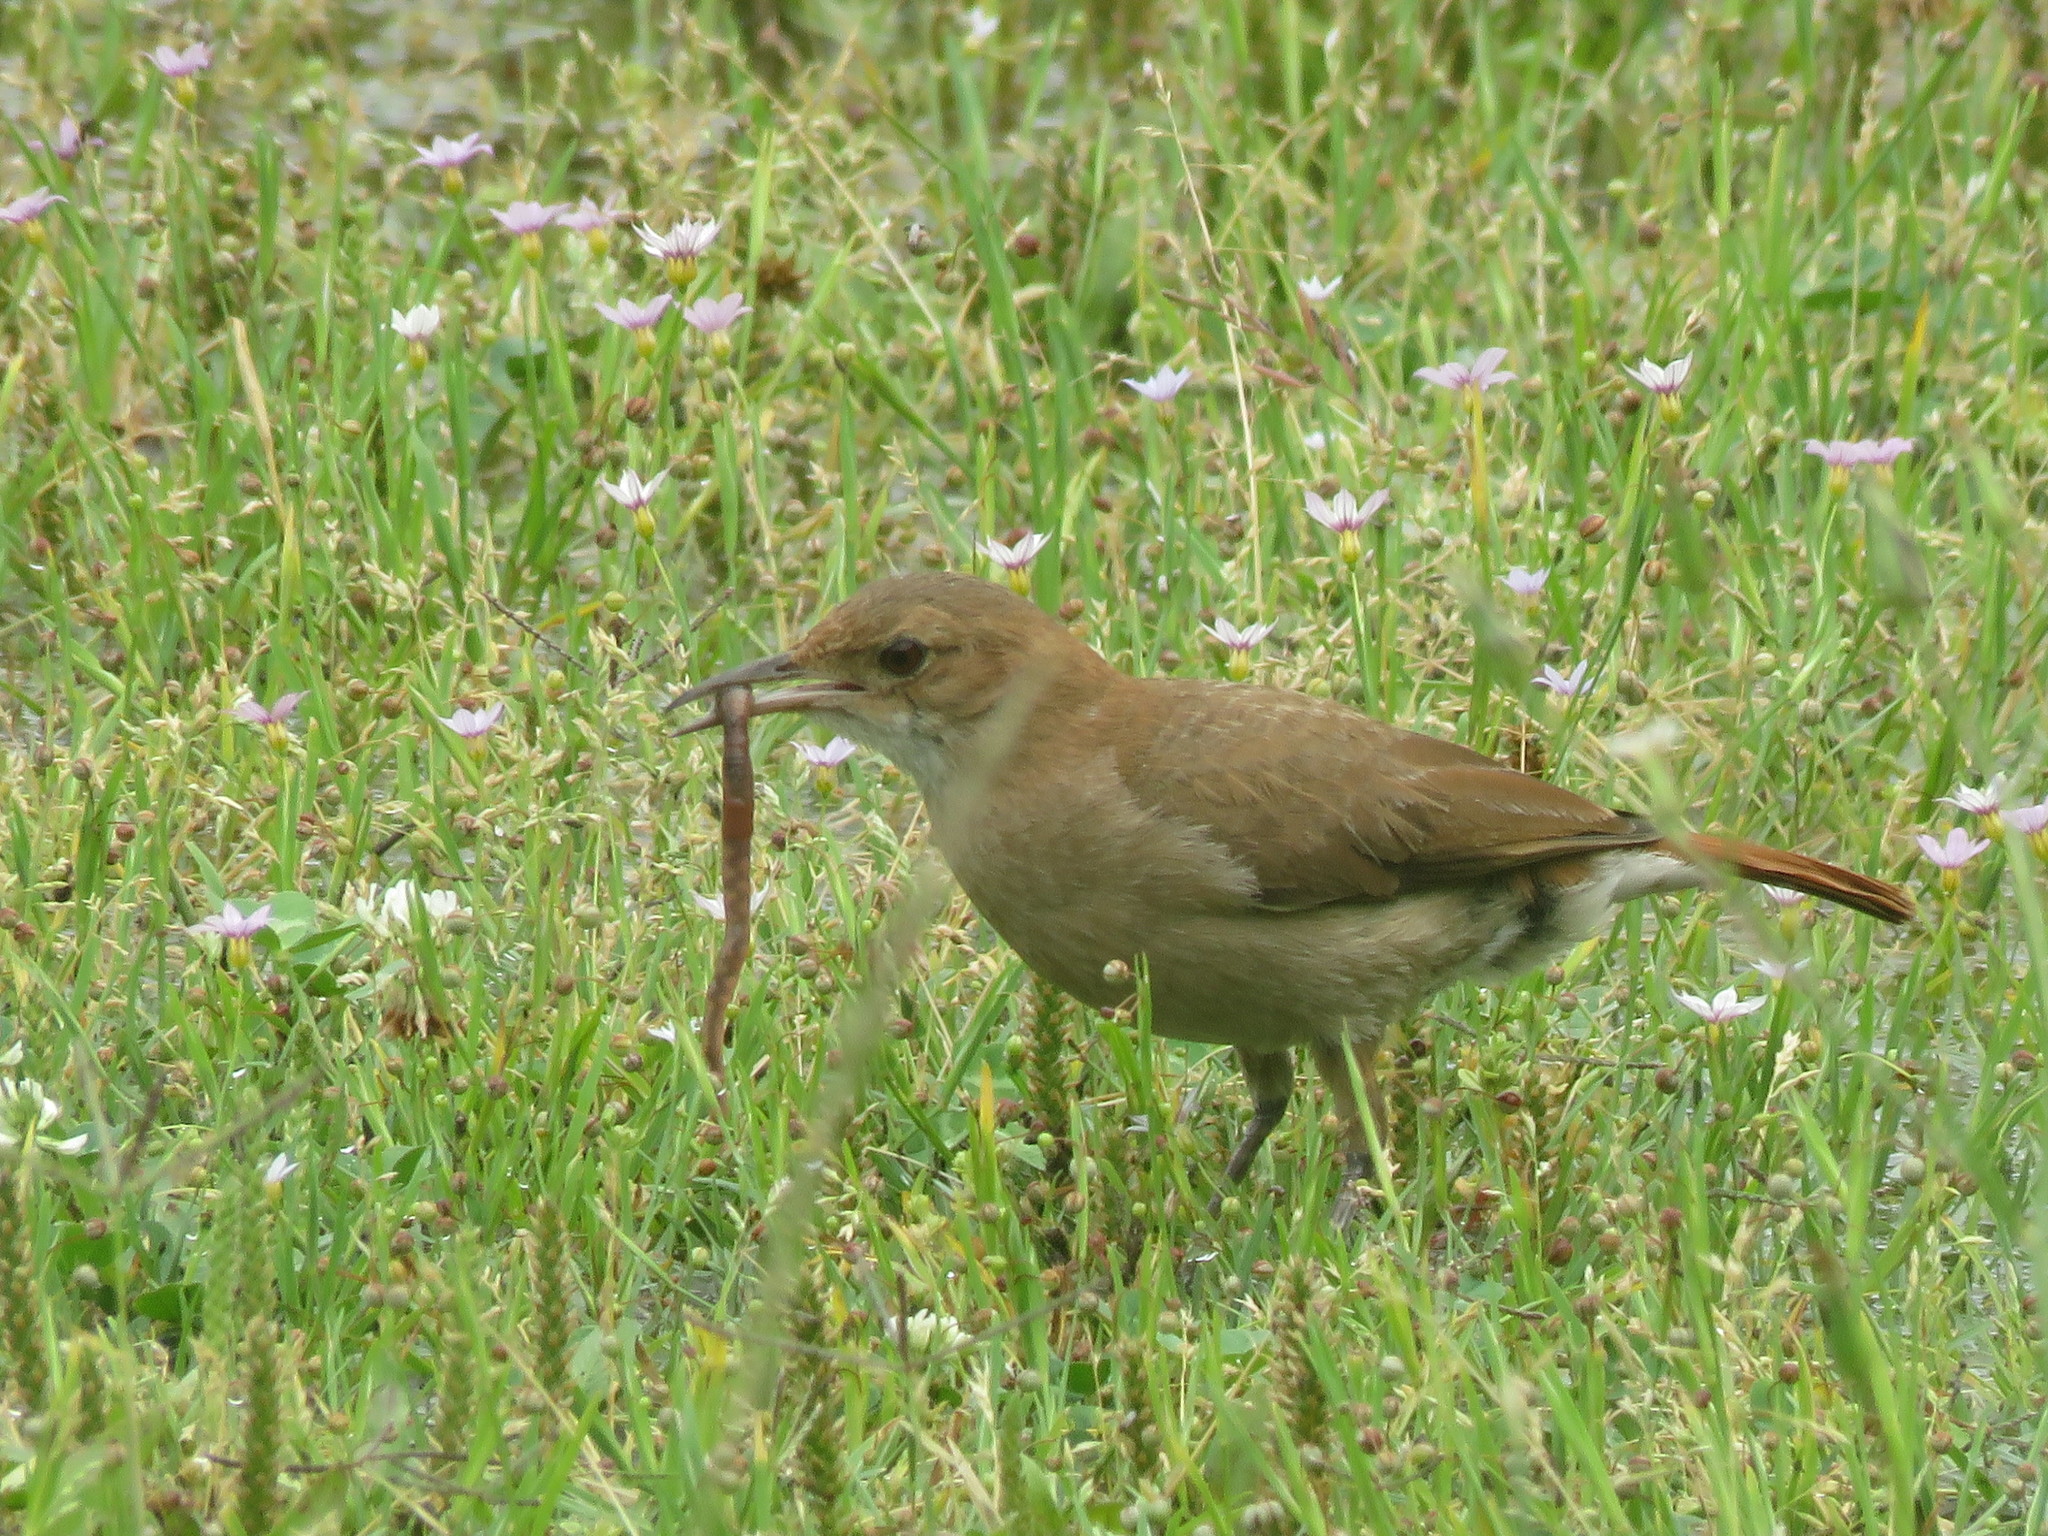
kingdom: Animalia
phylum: Chordata
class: Aves
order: Passeriformes
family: Furnariidae
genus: Furnarius
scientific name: Furnarius rufus
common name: Rufous hornero
